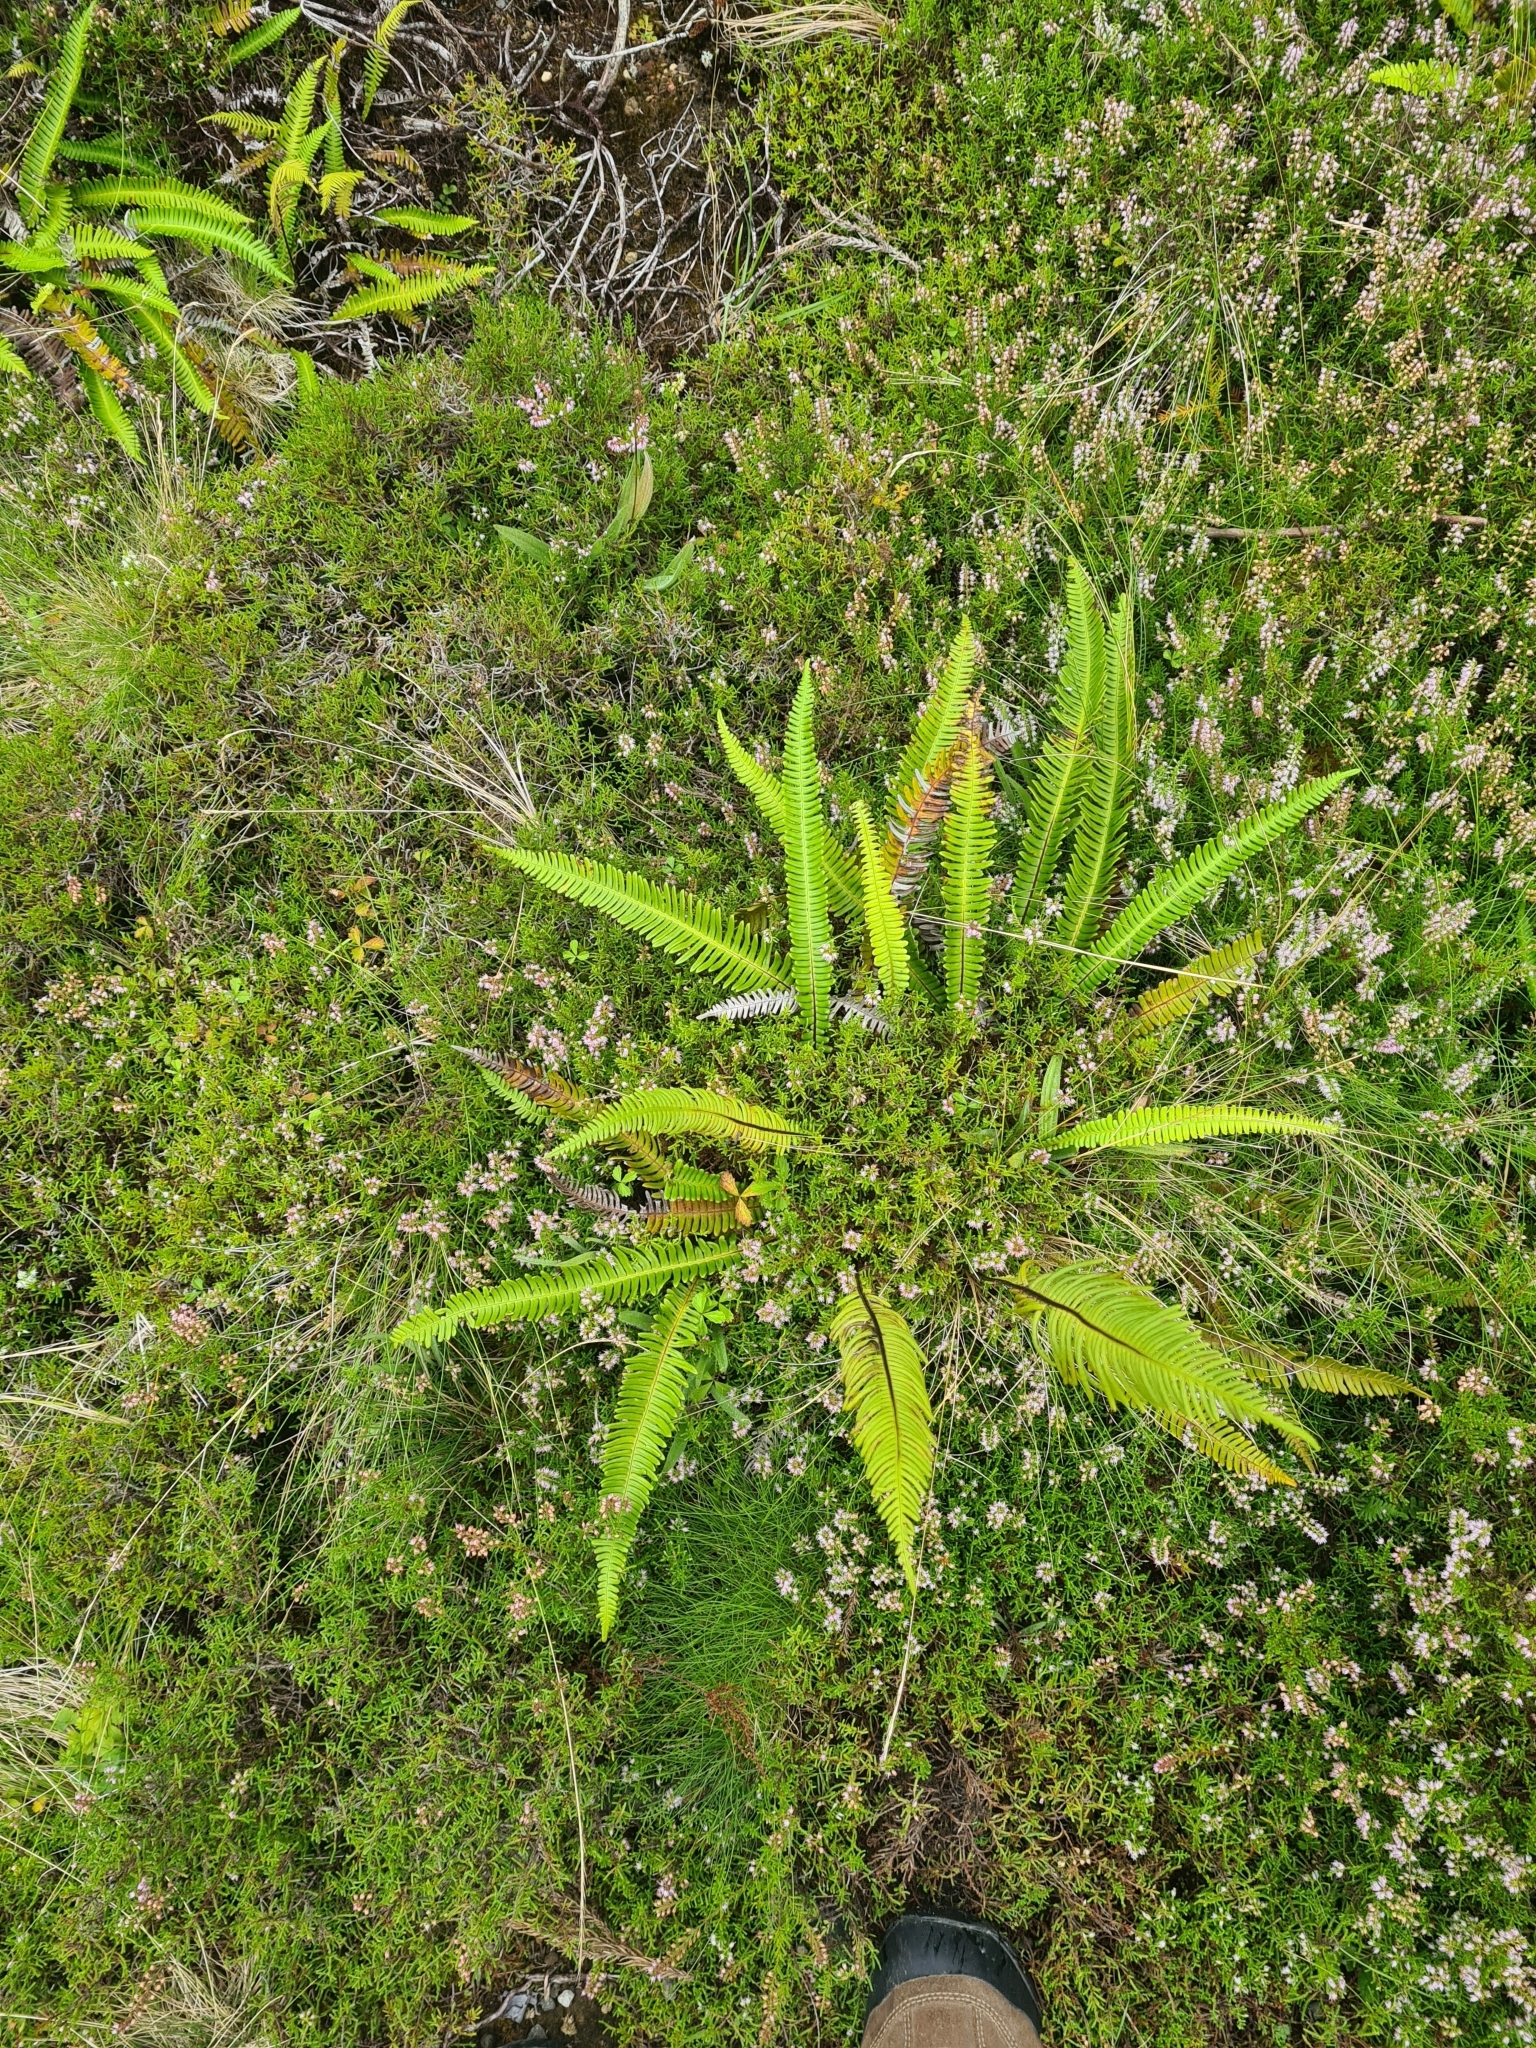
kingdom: Plantae
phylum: Tracheophyta
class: Polypodiopsida
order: Polypodiales
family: Blechnaceae
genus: Struthiopteris
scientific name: Struthiopteris spicant
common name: Deer fern
